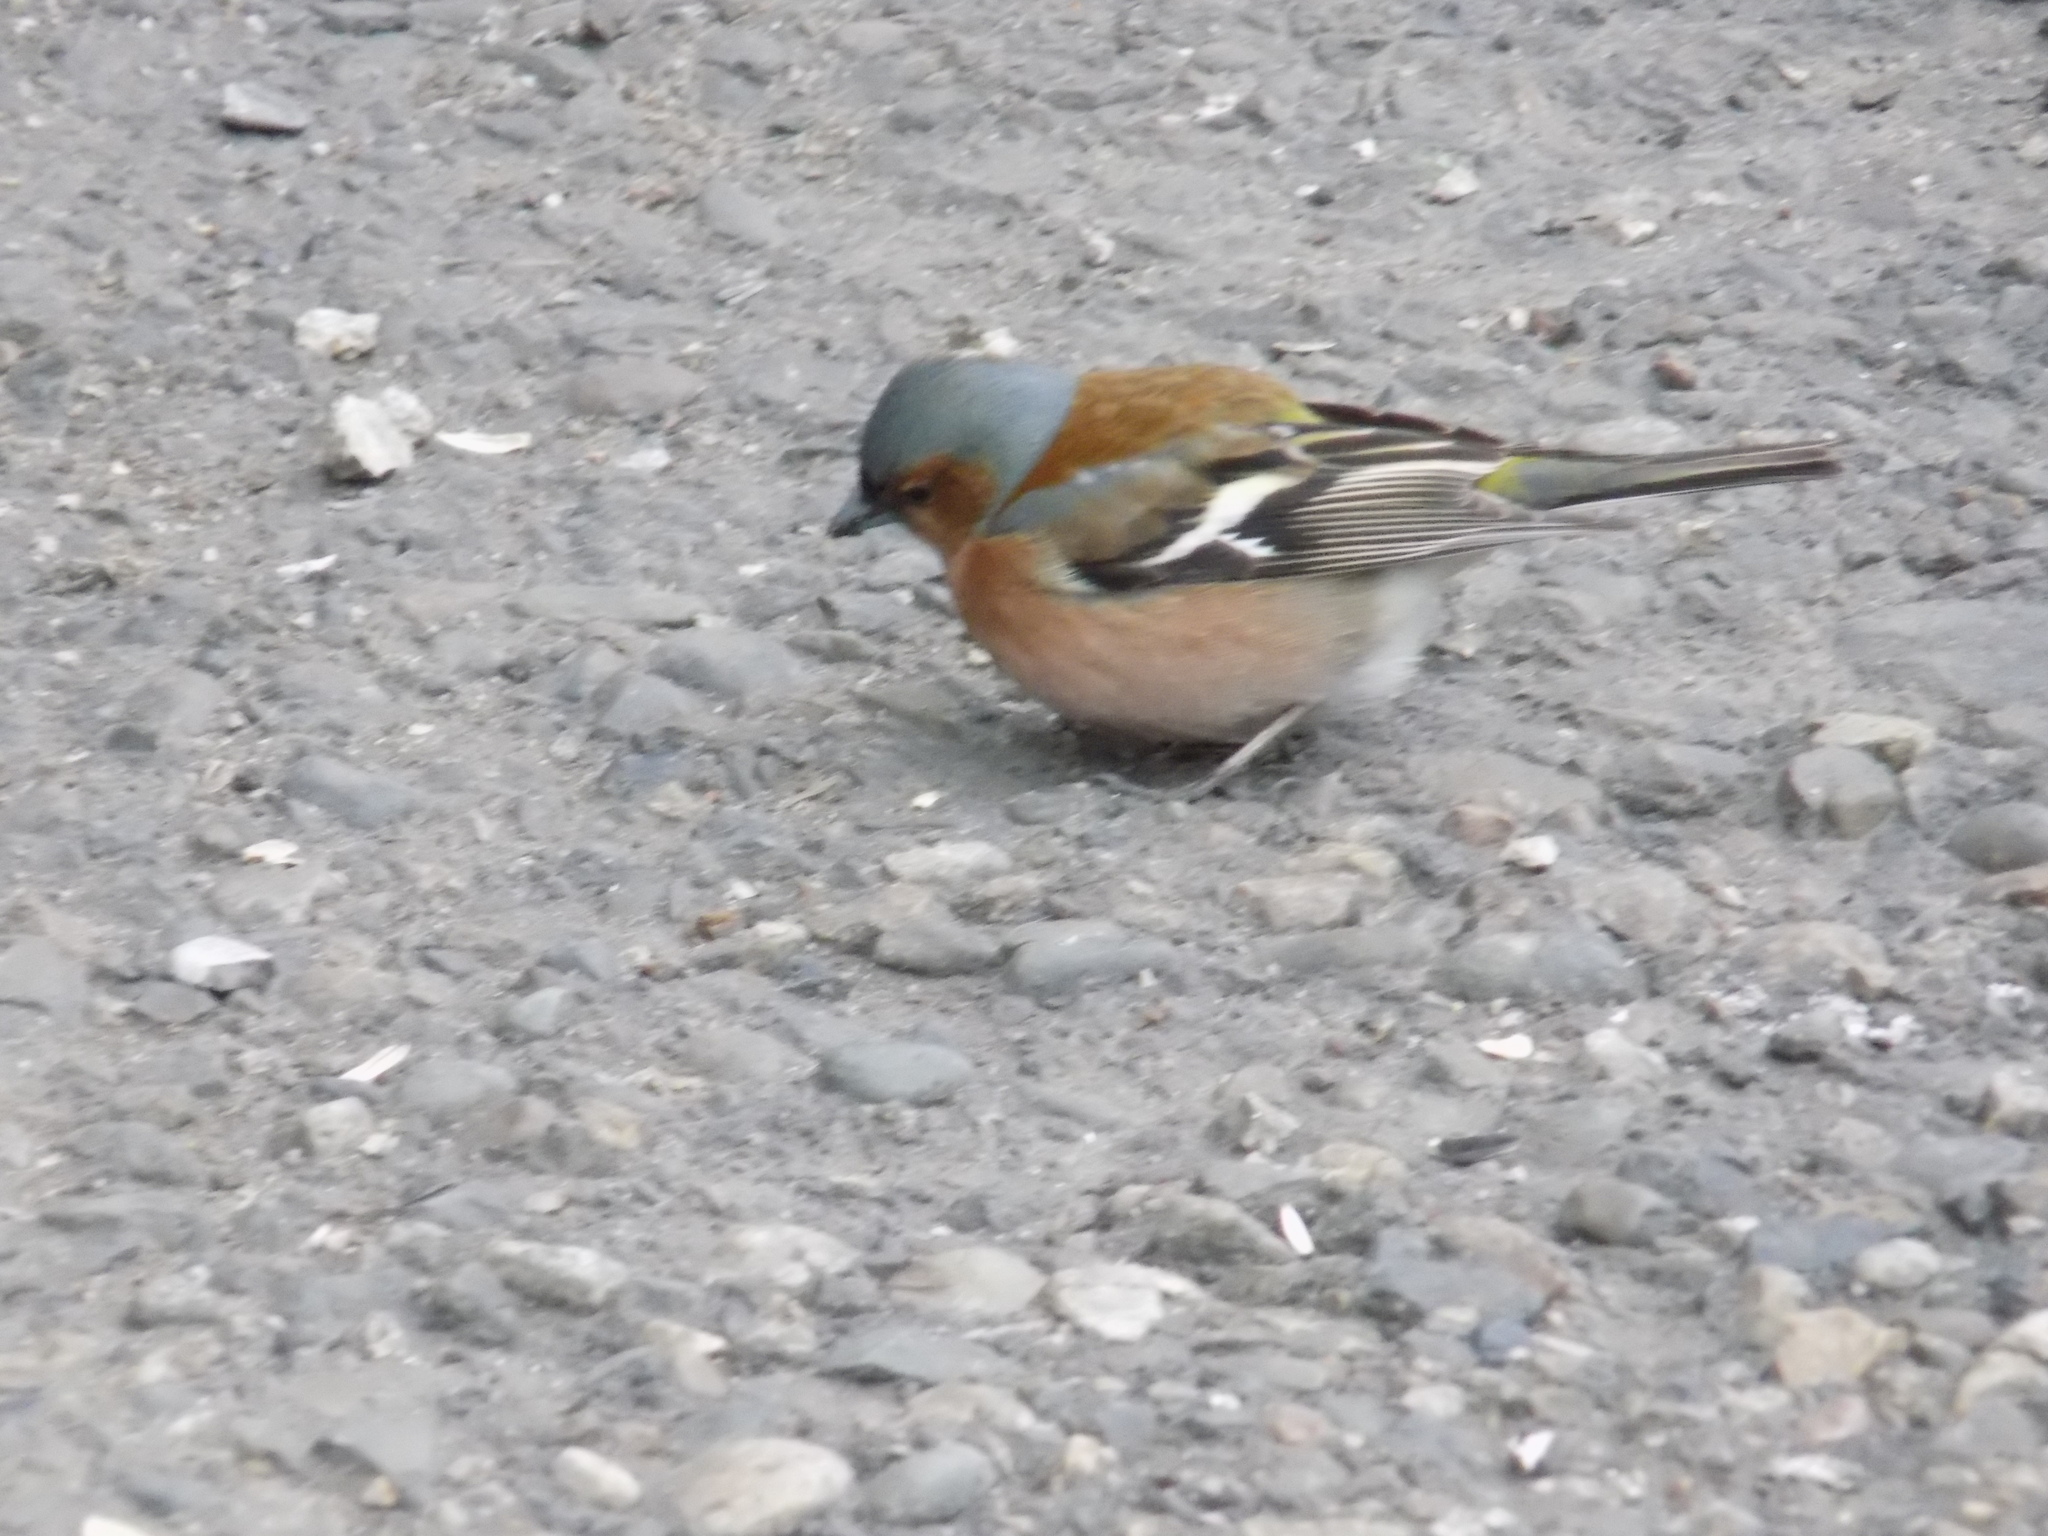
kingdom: Animalia
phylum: Chordata
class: Aves
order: Passeriformes
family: Fringillidae
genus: Fringilla
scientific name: Fringilla coelebs
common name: Common chaffinch
